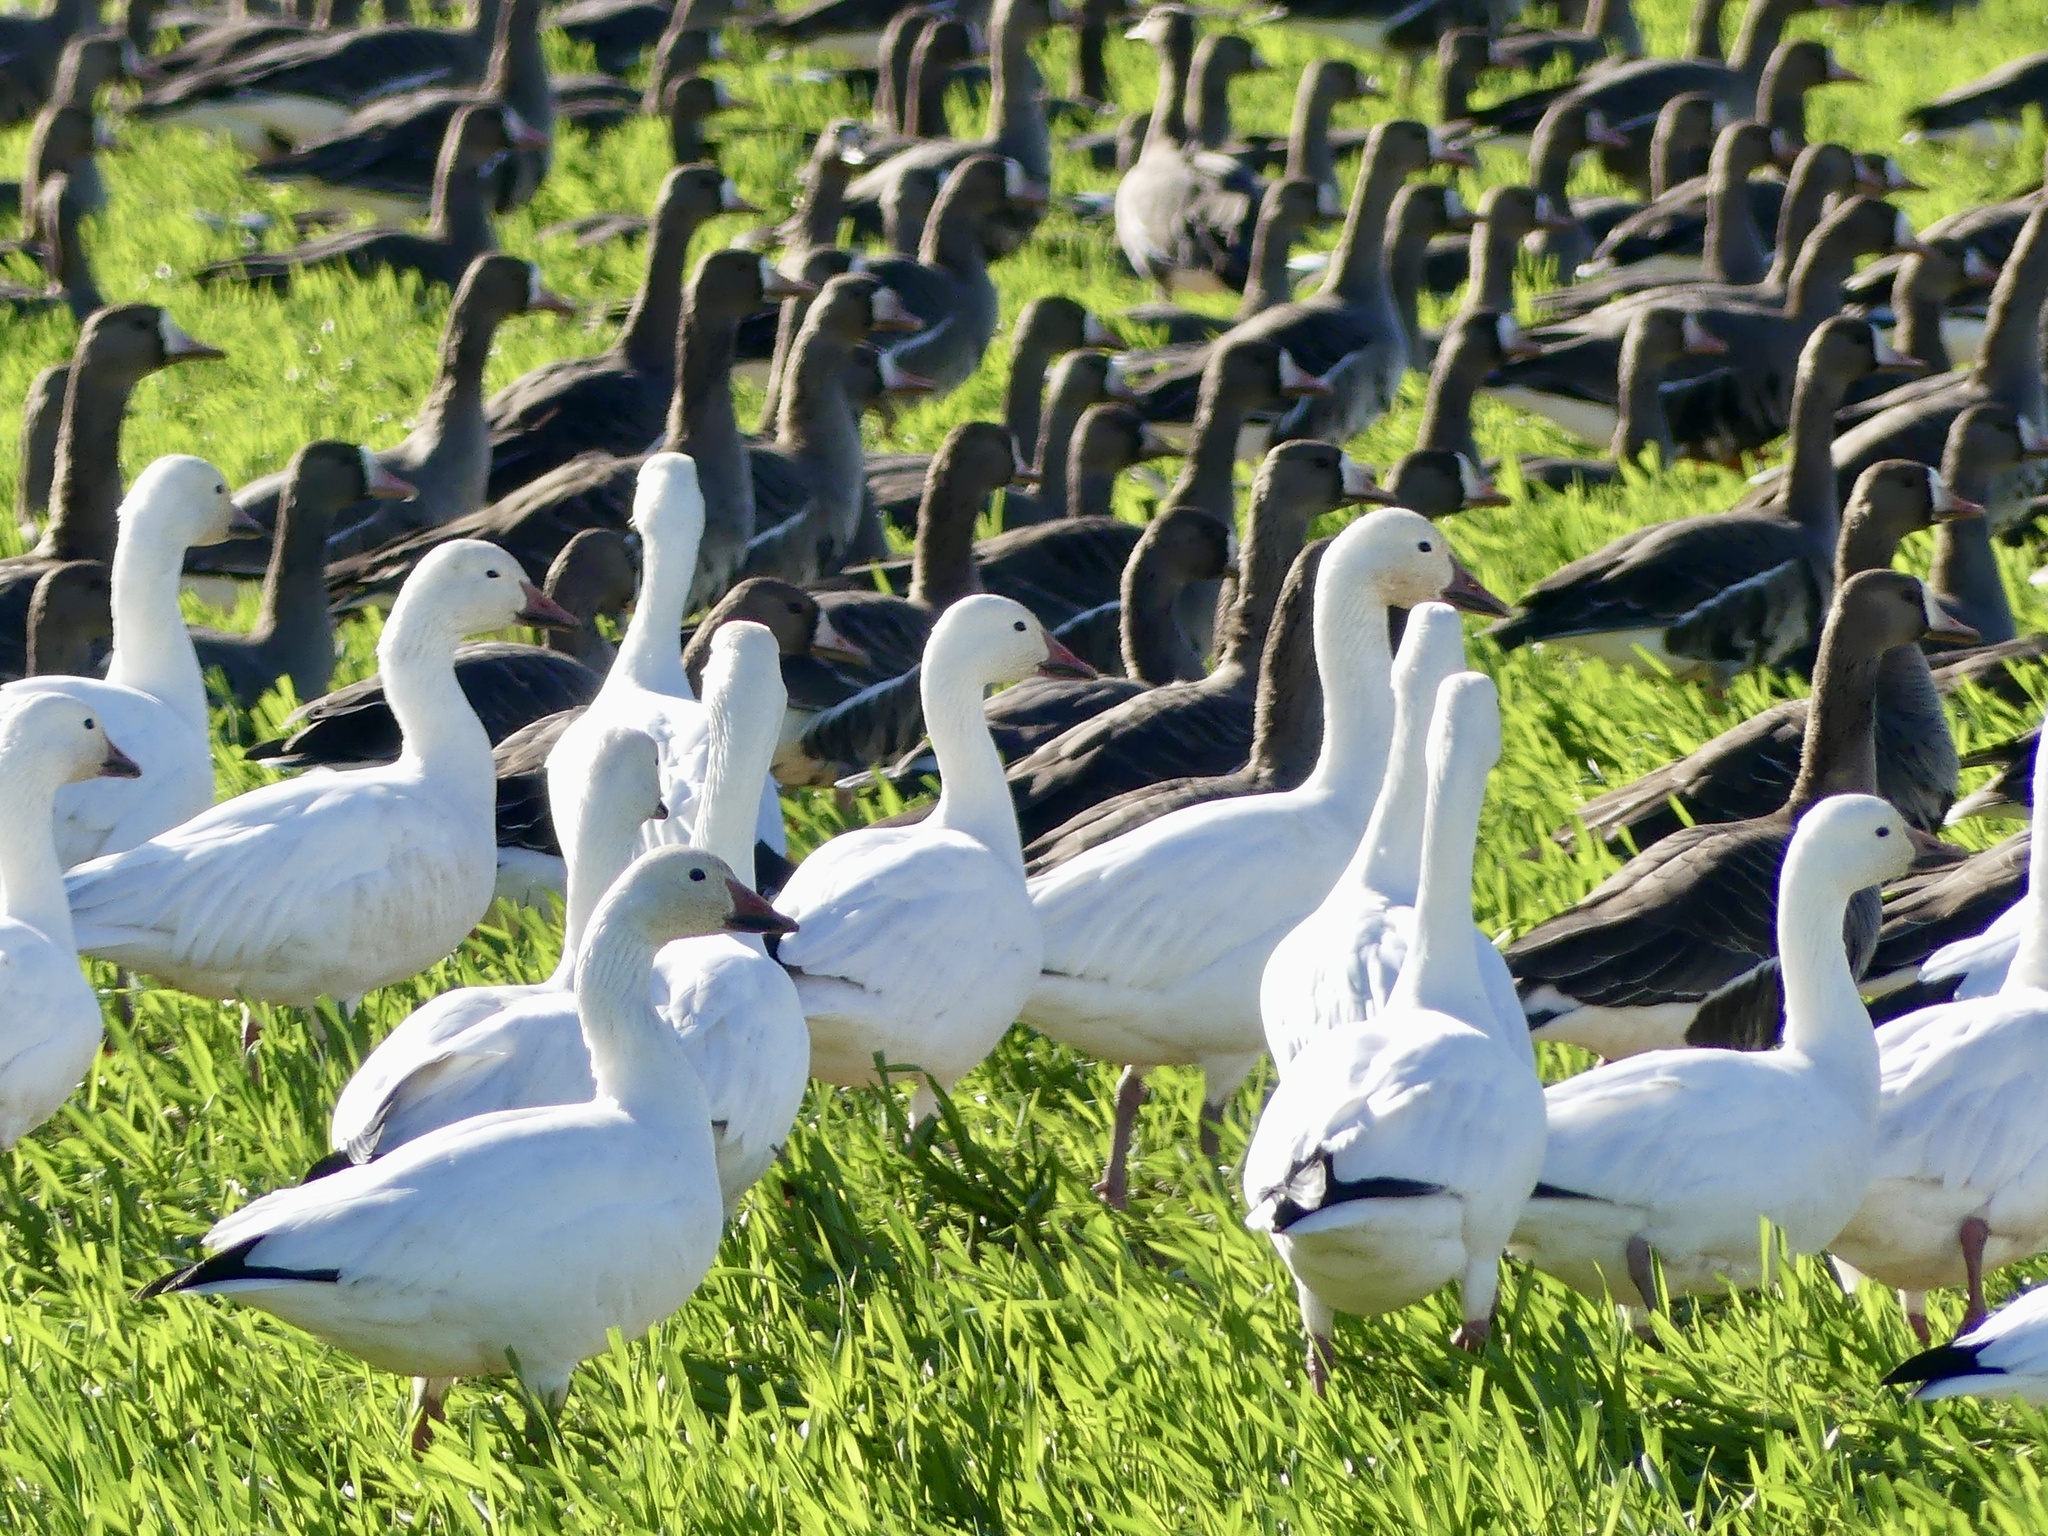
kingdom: Animalia
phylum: Chordata
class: Aves
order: Anseriformes
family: Anatidae
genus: Anser
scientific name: Anser caerulescens
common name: Snow goose
